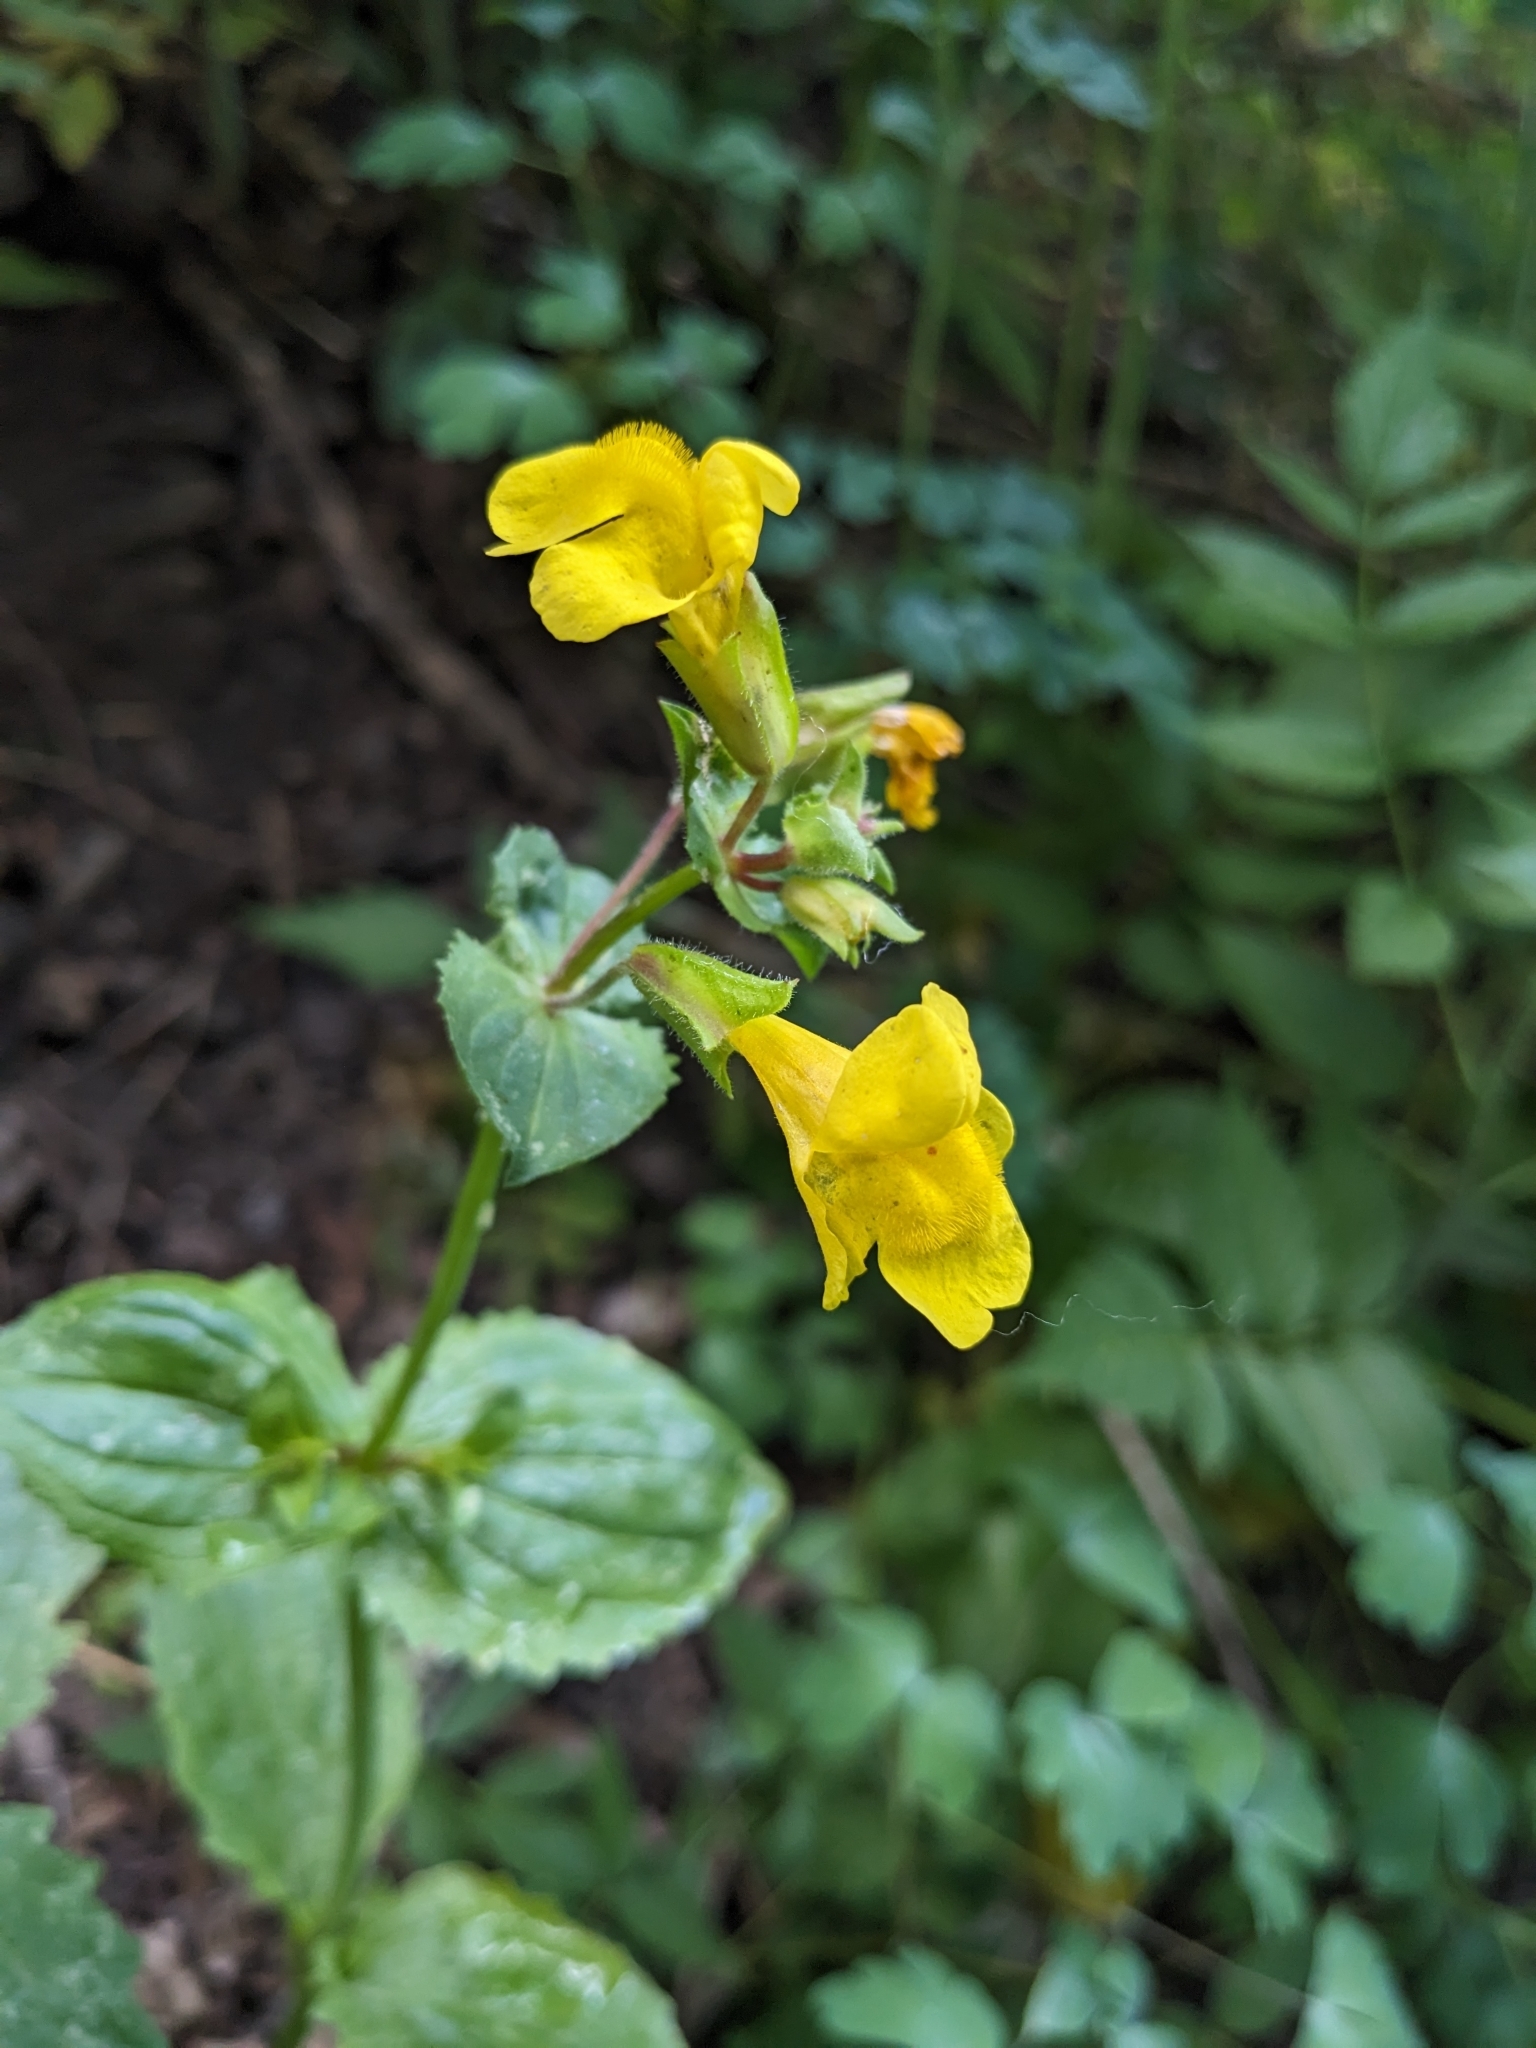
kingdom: Plantae
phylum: Tracheophyta
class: Magnoliopsida
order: Lamiales
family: Phrymaceae
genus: Erythranthe
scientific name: Erythranthe guttata
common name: Monkeyflower
